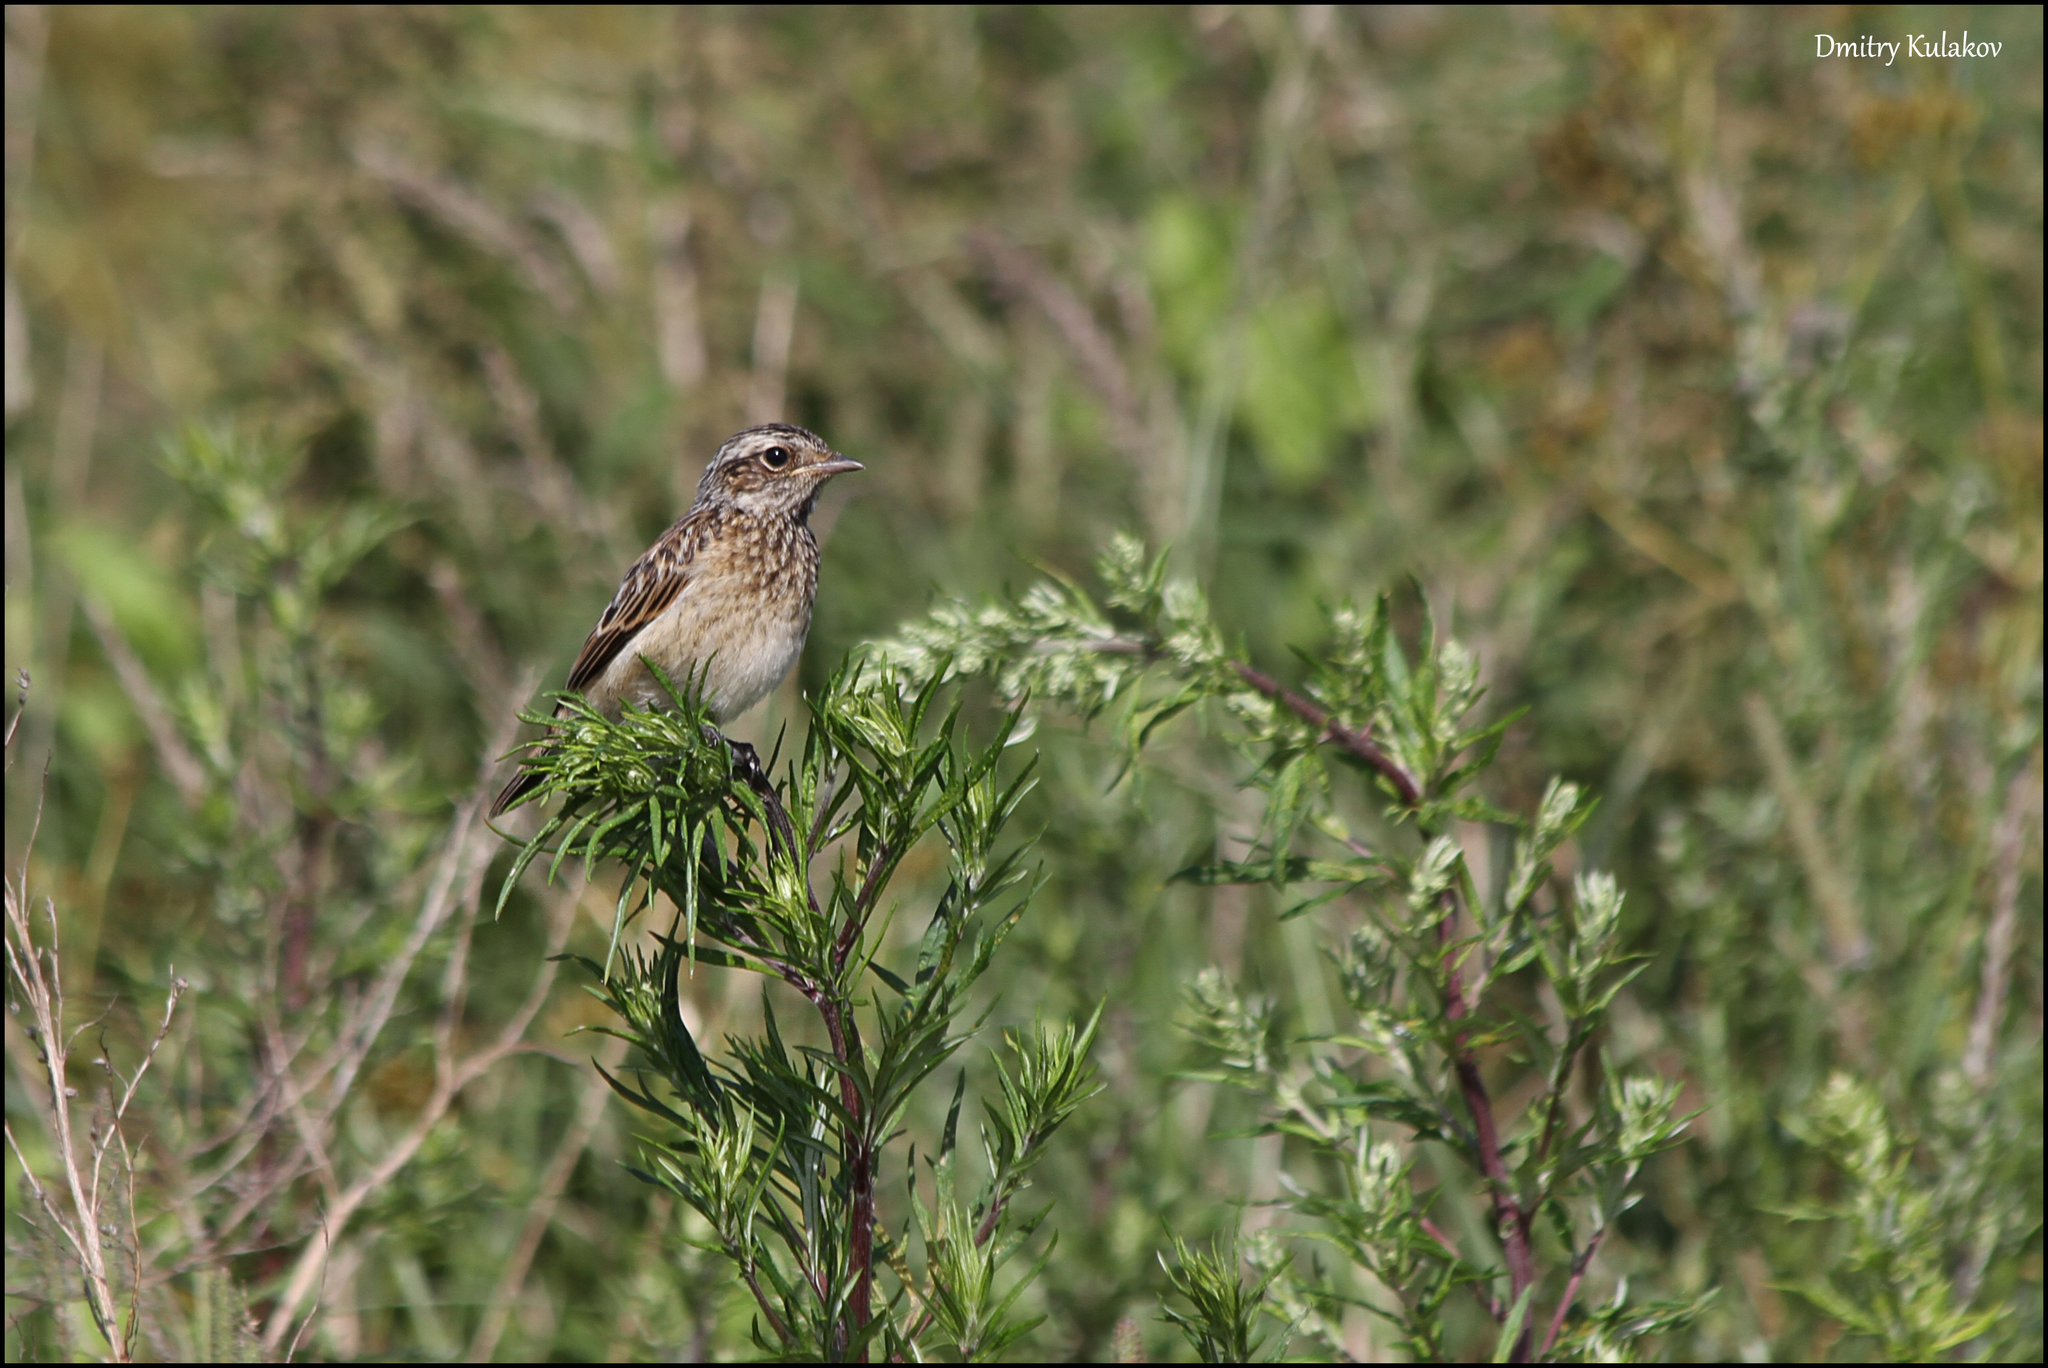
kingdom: Animalia
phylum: Chordata
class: Aves
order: Passeriformes
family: Muscicapidae
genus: Saxicola
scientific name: Saxicola rubetra
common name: Whinchat
